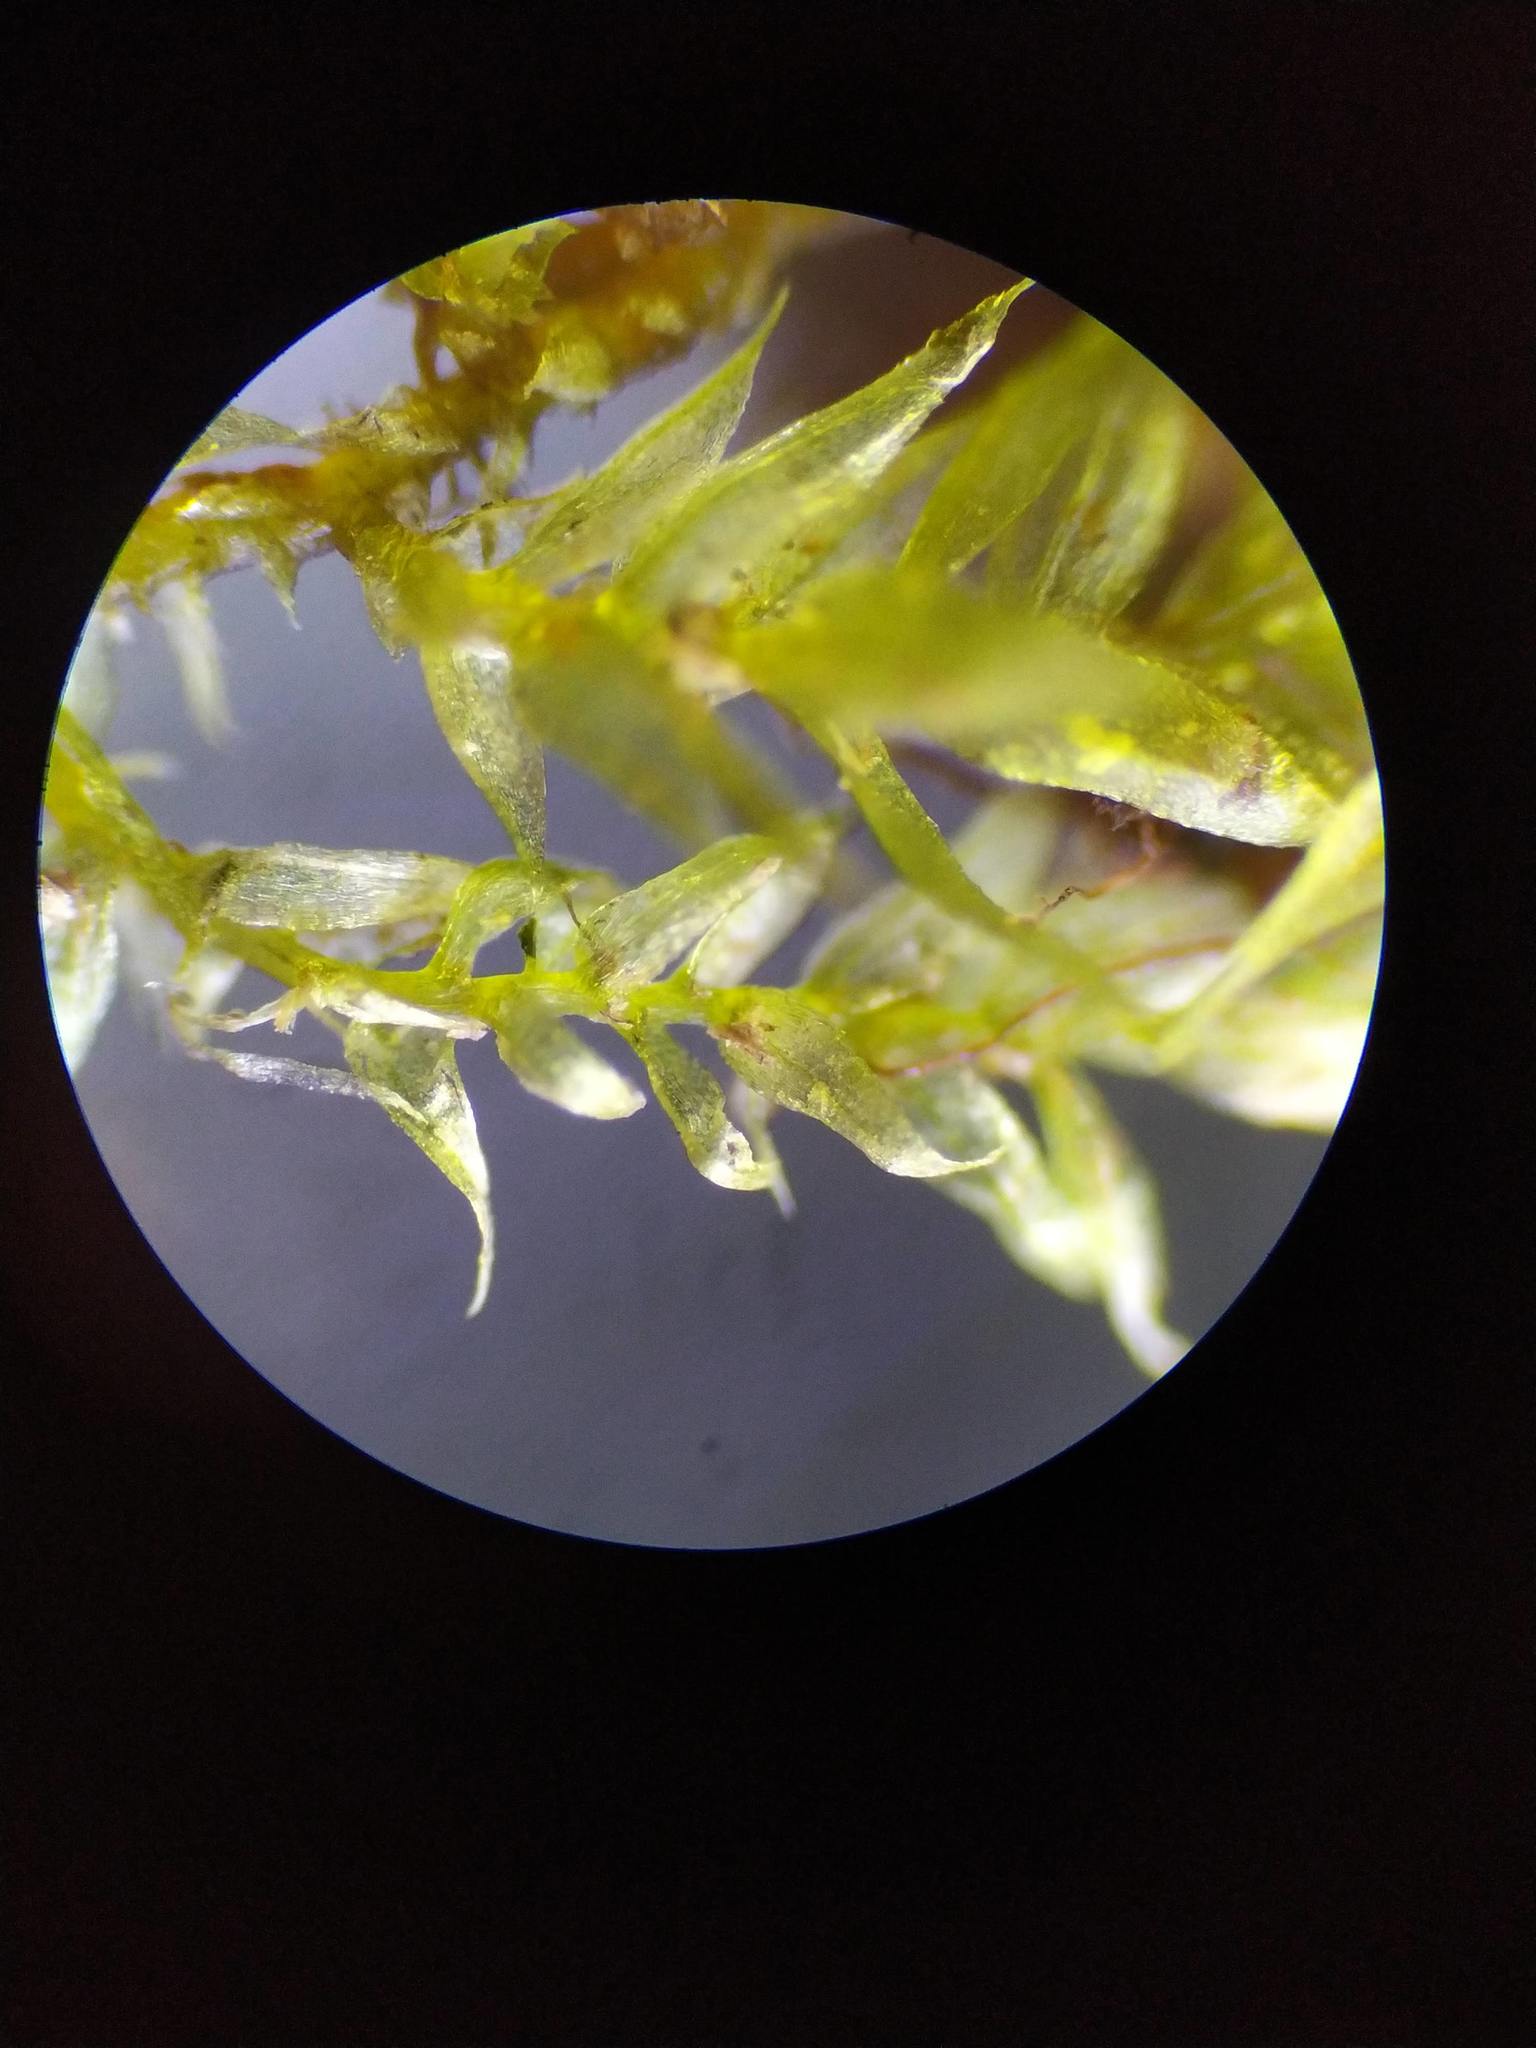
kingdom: Plantae
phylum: Bryophyta
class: Bryopsida
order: Hypnales
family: Pylaisiadelphaceae
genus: Platygyrium
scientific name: Platygyrium repens
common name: Flat-brocade moss
